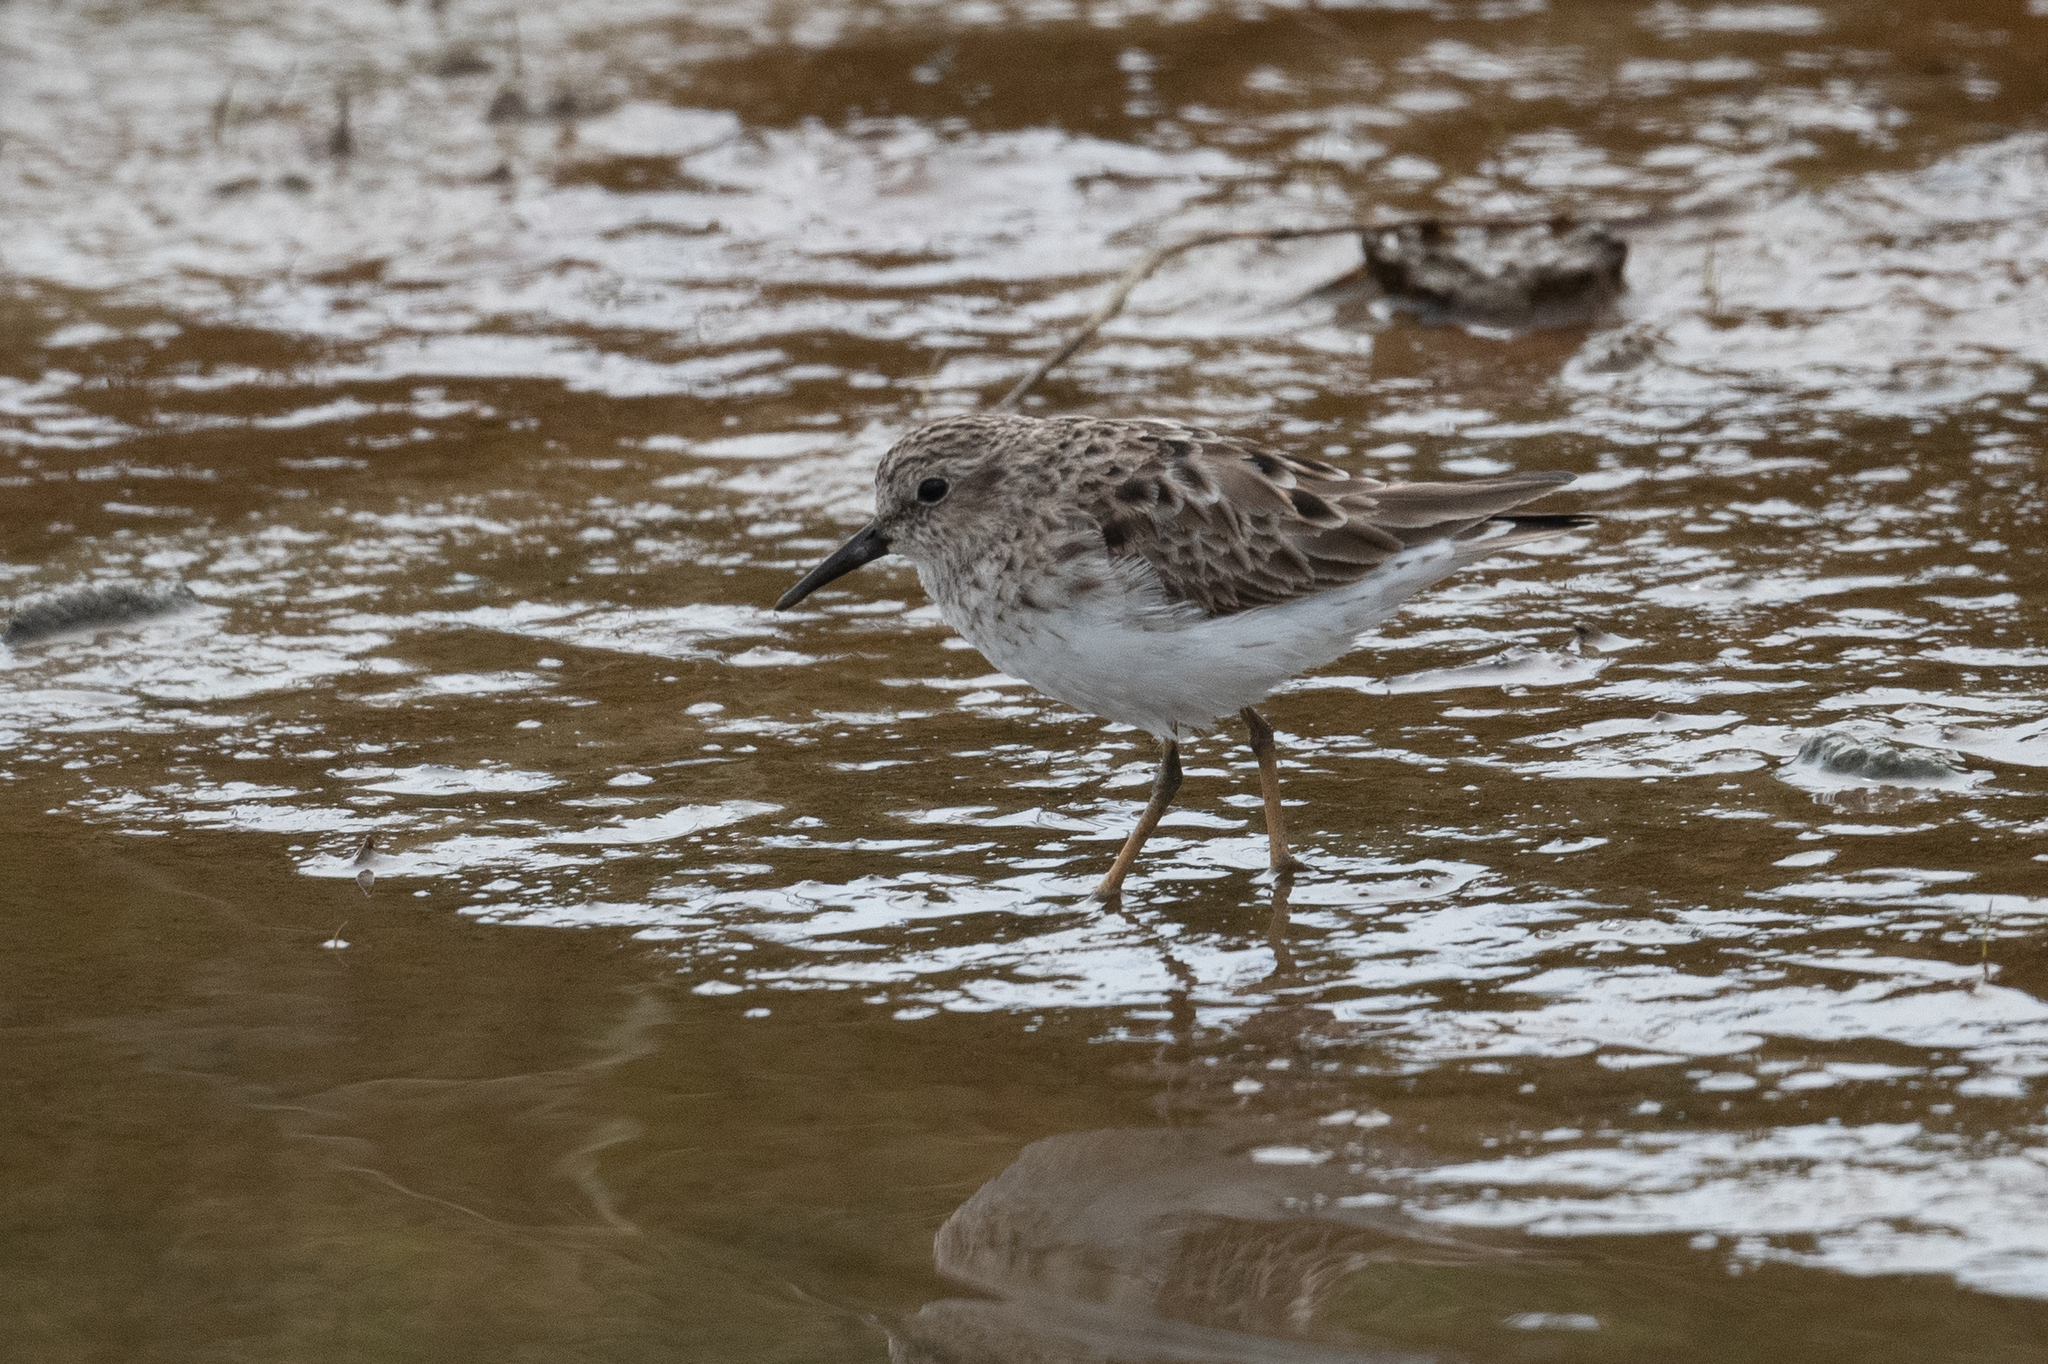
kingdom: Animalia
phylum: Chordata
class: Aves
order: Charadriiformes
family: Scolopacidae
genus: Calidris
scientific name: Calidris minutilla
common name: Least sandpiper
